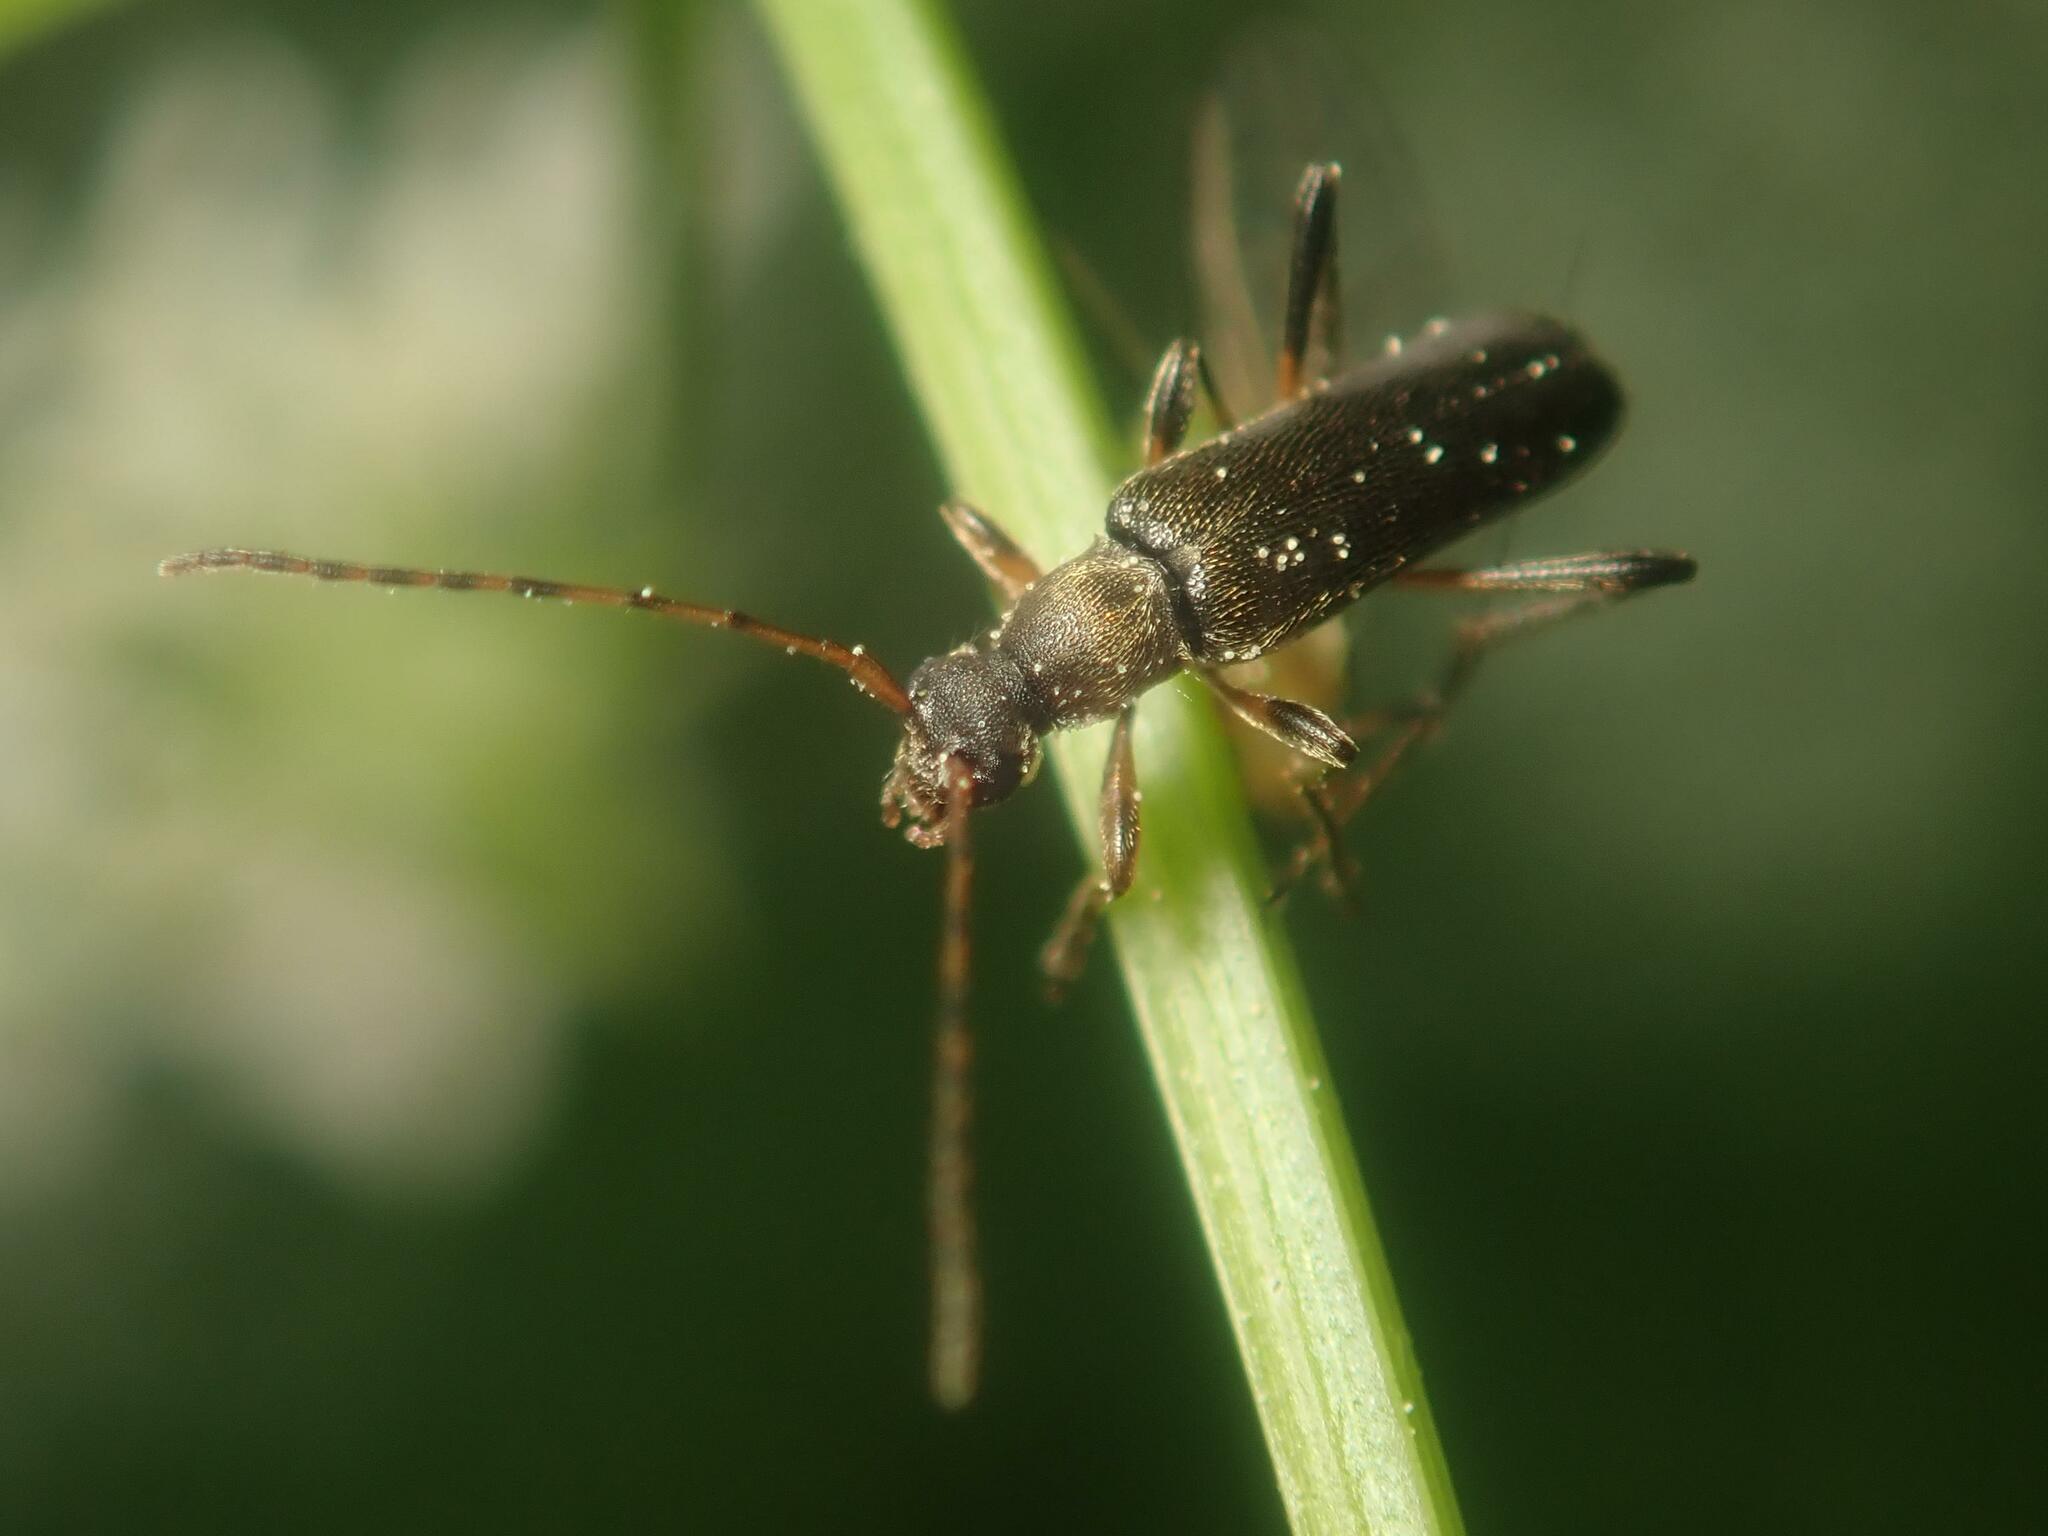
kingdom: Animalia
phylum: Arthropoda
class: Insecta
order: Coleoptera
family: Cerambycidae
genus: Grammoptera
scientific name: Grammoptera ruficornis
